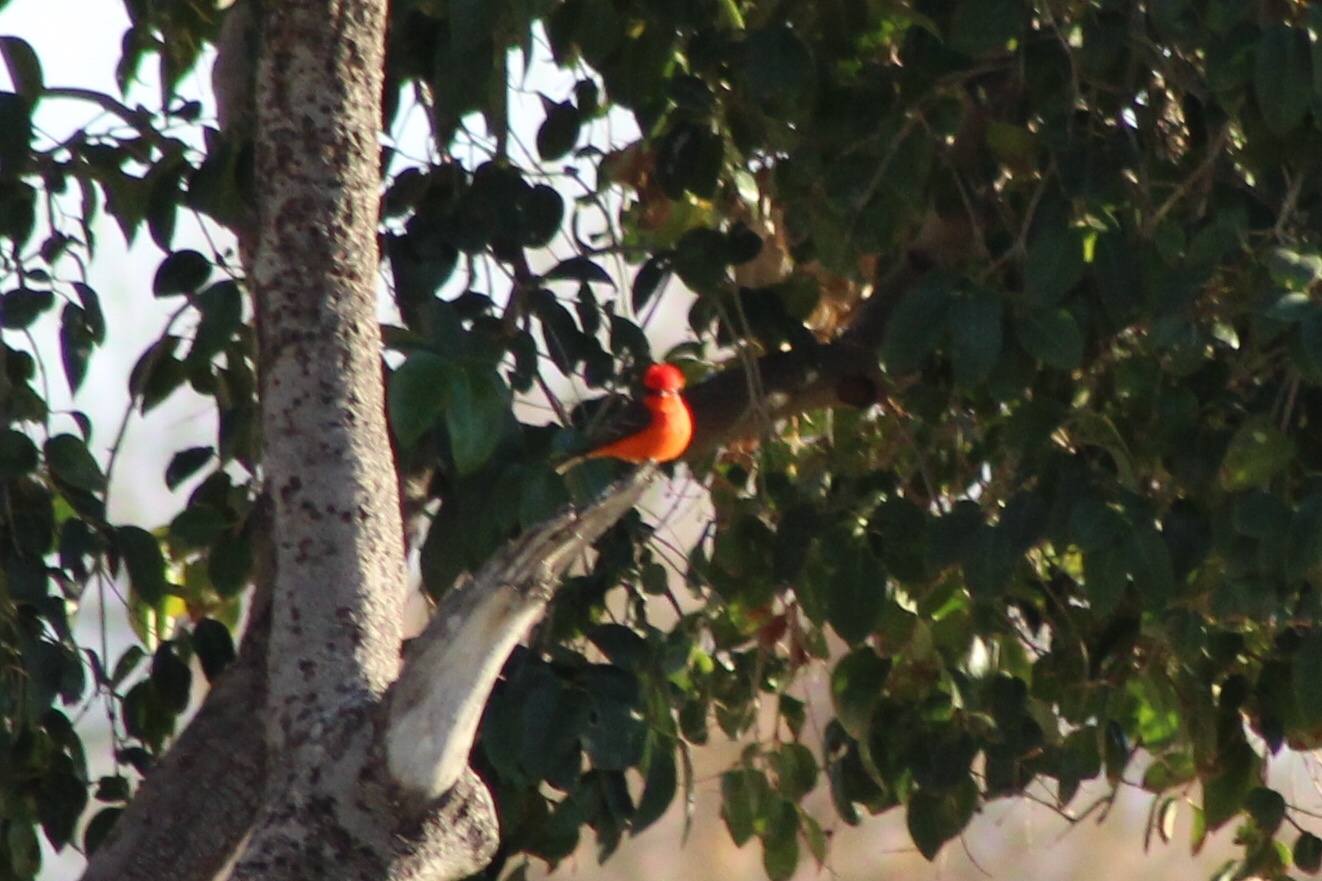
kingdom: Animalia
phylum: Chordata
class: Aves
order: Passeriformes
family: Tyrannidae
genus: Pyrocephalus
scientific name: Pyrocephalus rubinus
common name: Vermilion flycatcher
